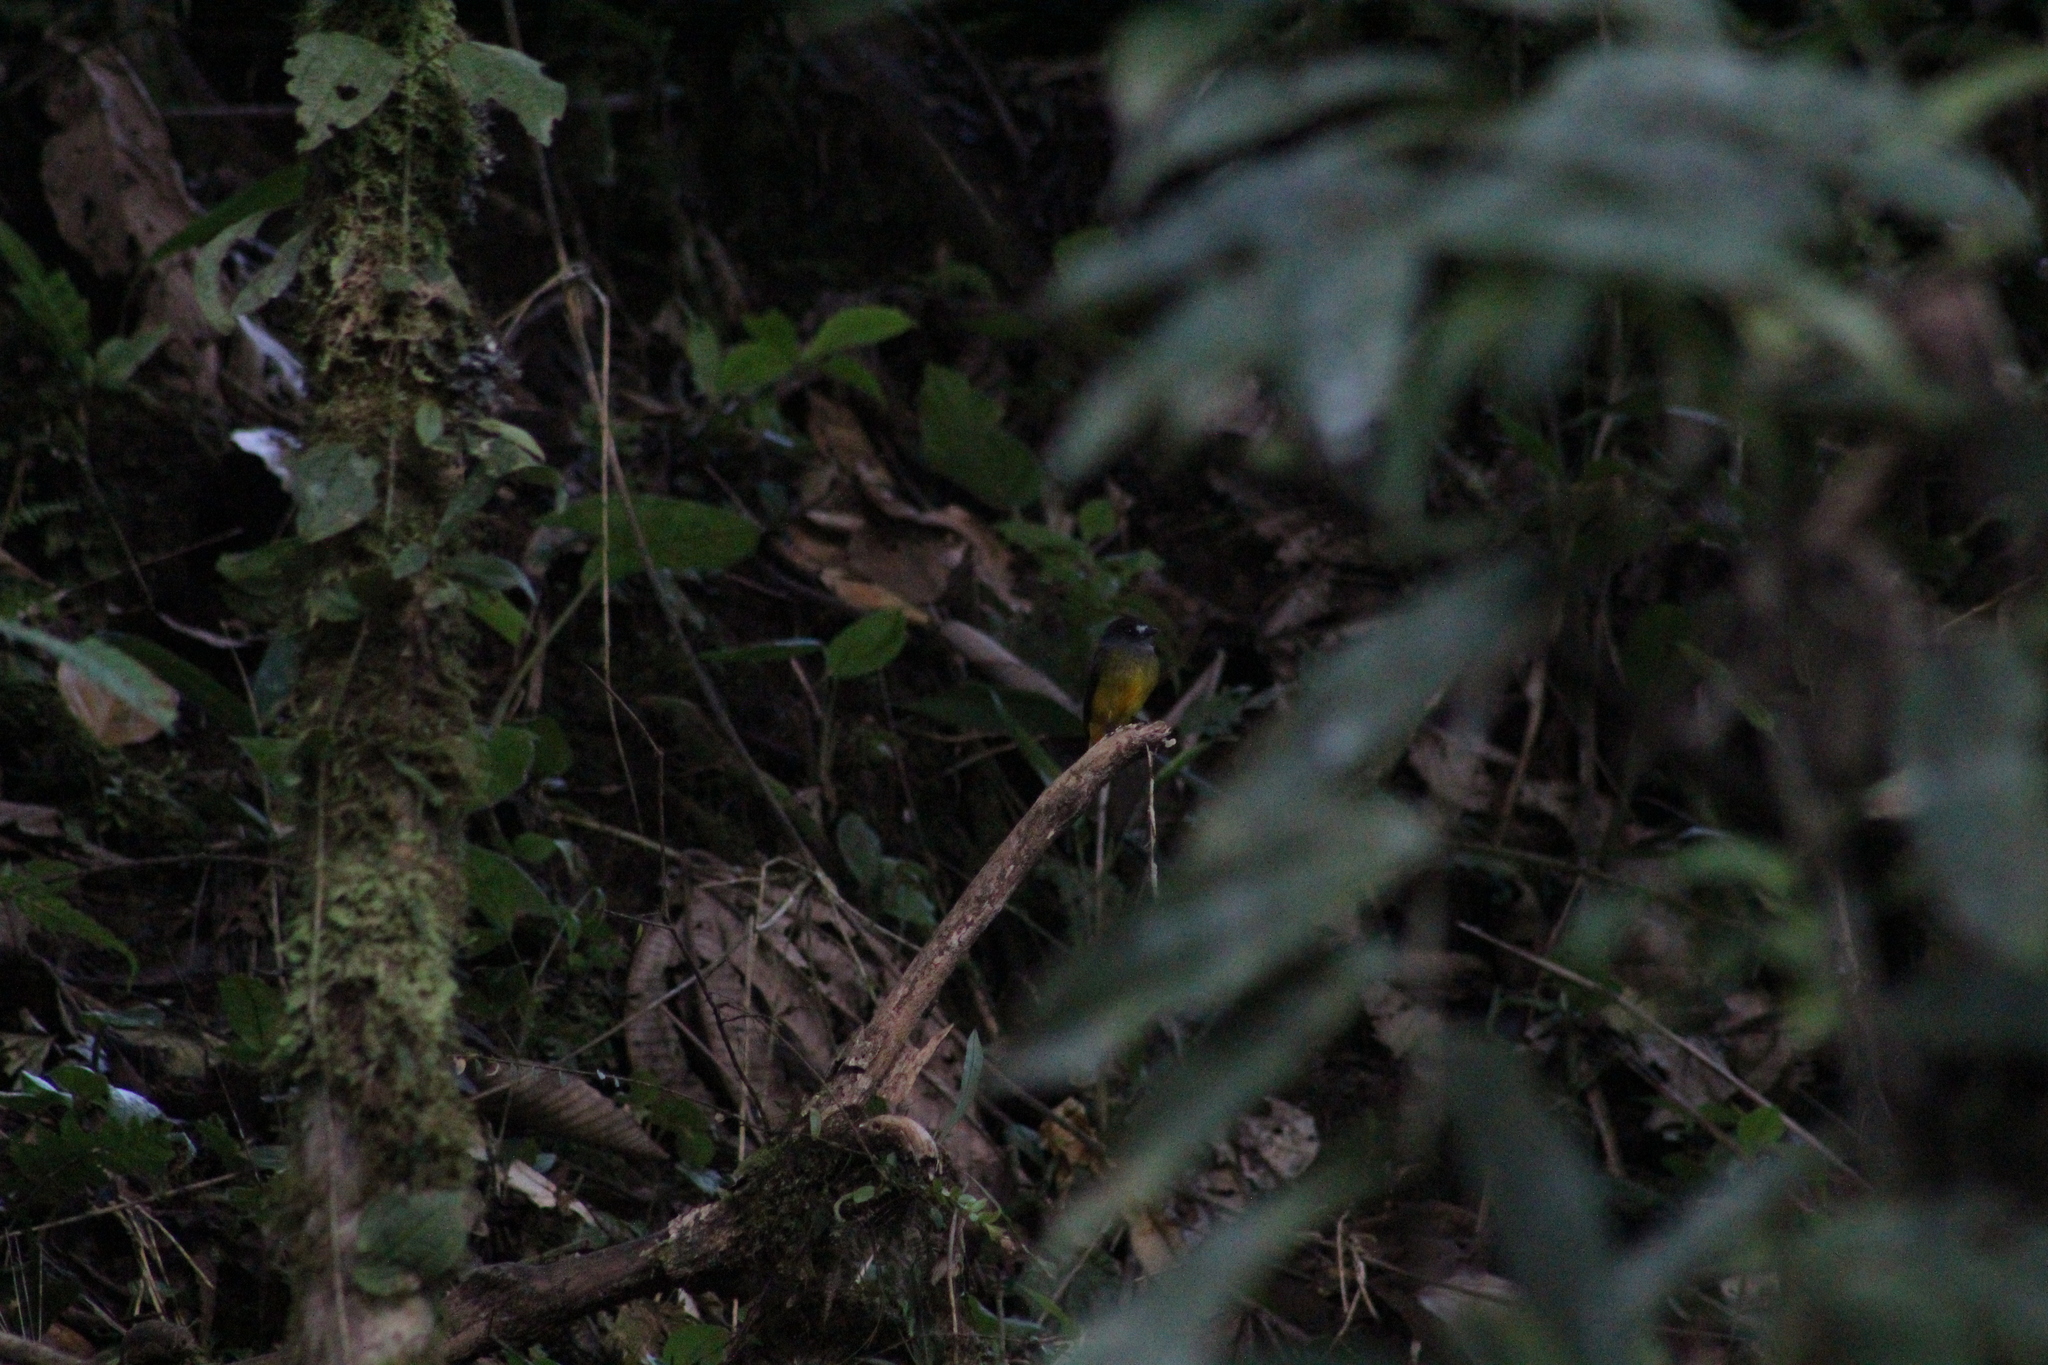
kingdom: Animalia
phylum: Chordata
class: Aves
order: Passeriformes
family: Tyrannidae
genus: Myiotriccus
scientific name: Myiotriccus ornatus
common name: Ornate flycatcher
